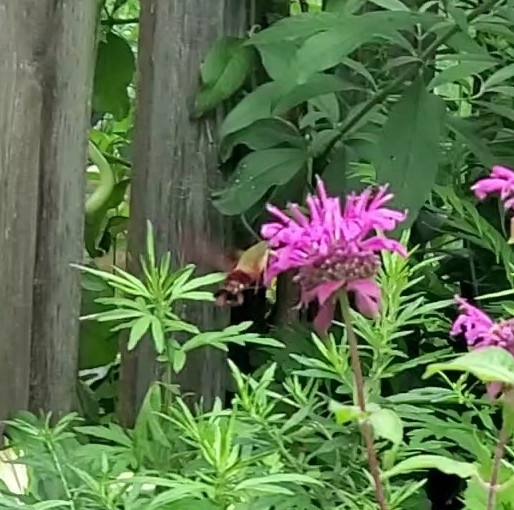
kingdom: Animalia
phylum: Arthropoda
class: Insecta
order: Lepidoptera
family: Sphingidae
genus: Hemaris
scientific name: Hemaris thysbe
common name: Common clear-wing
